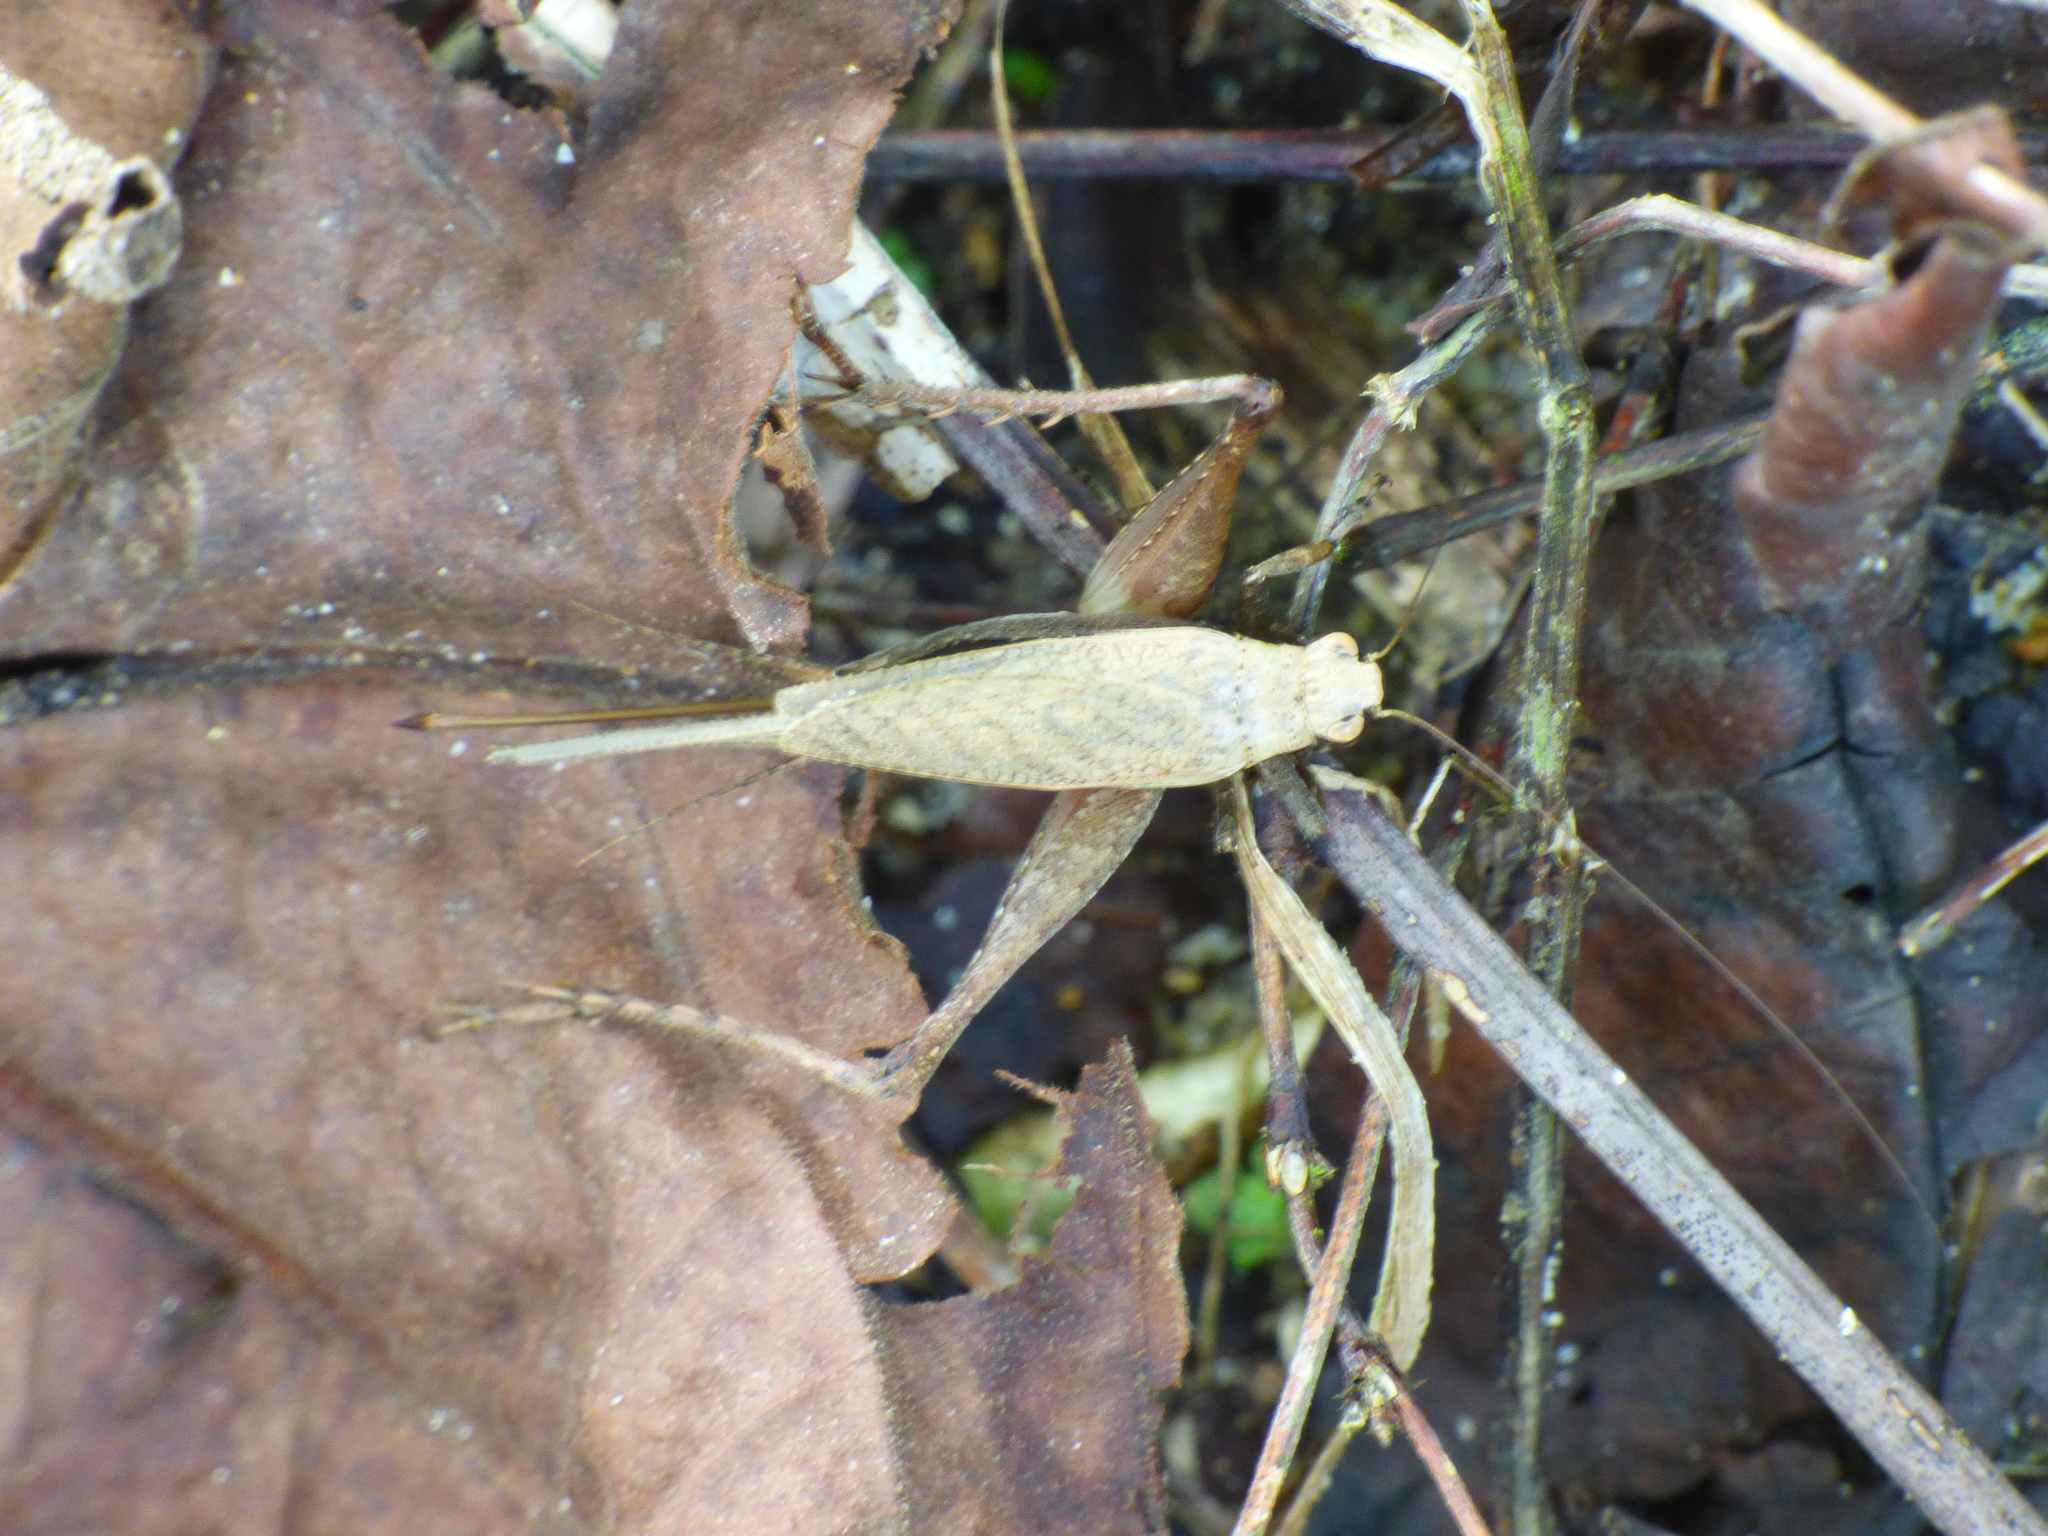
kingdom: Animalia
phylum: Arthropoda
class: Insecta
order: Orthoptera
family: Gryllidae
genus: Eneoptera
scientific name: Eneoptera surinamensis
